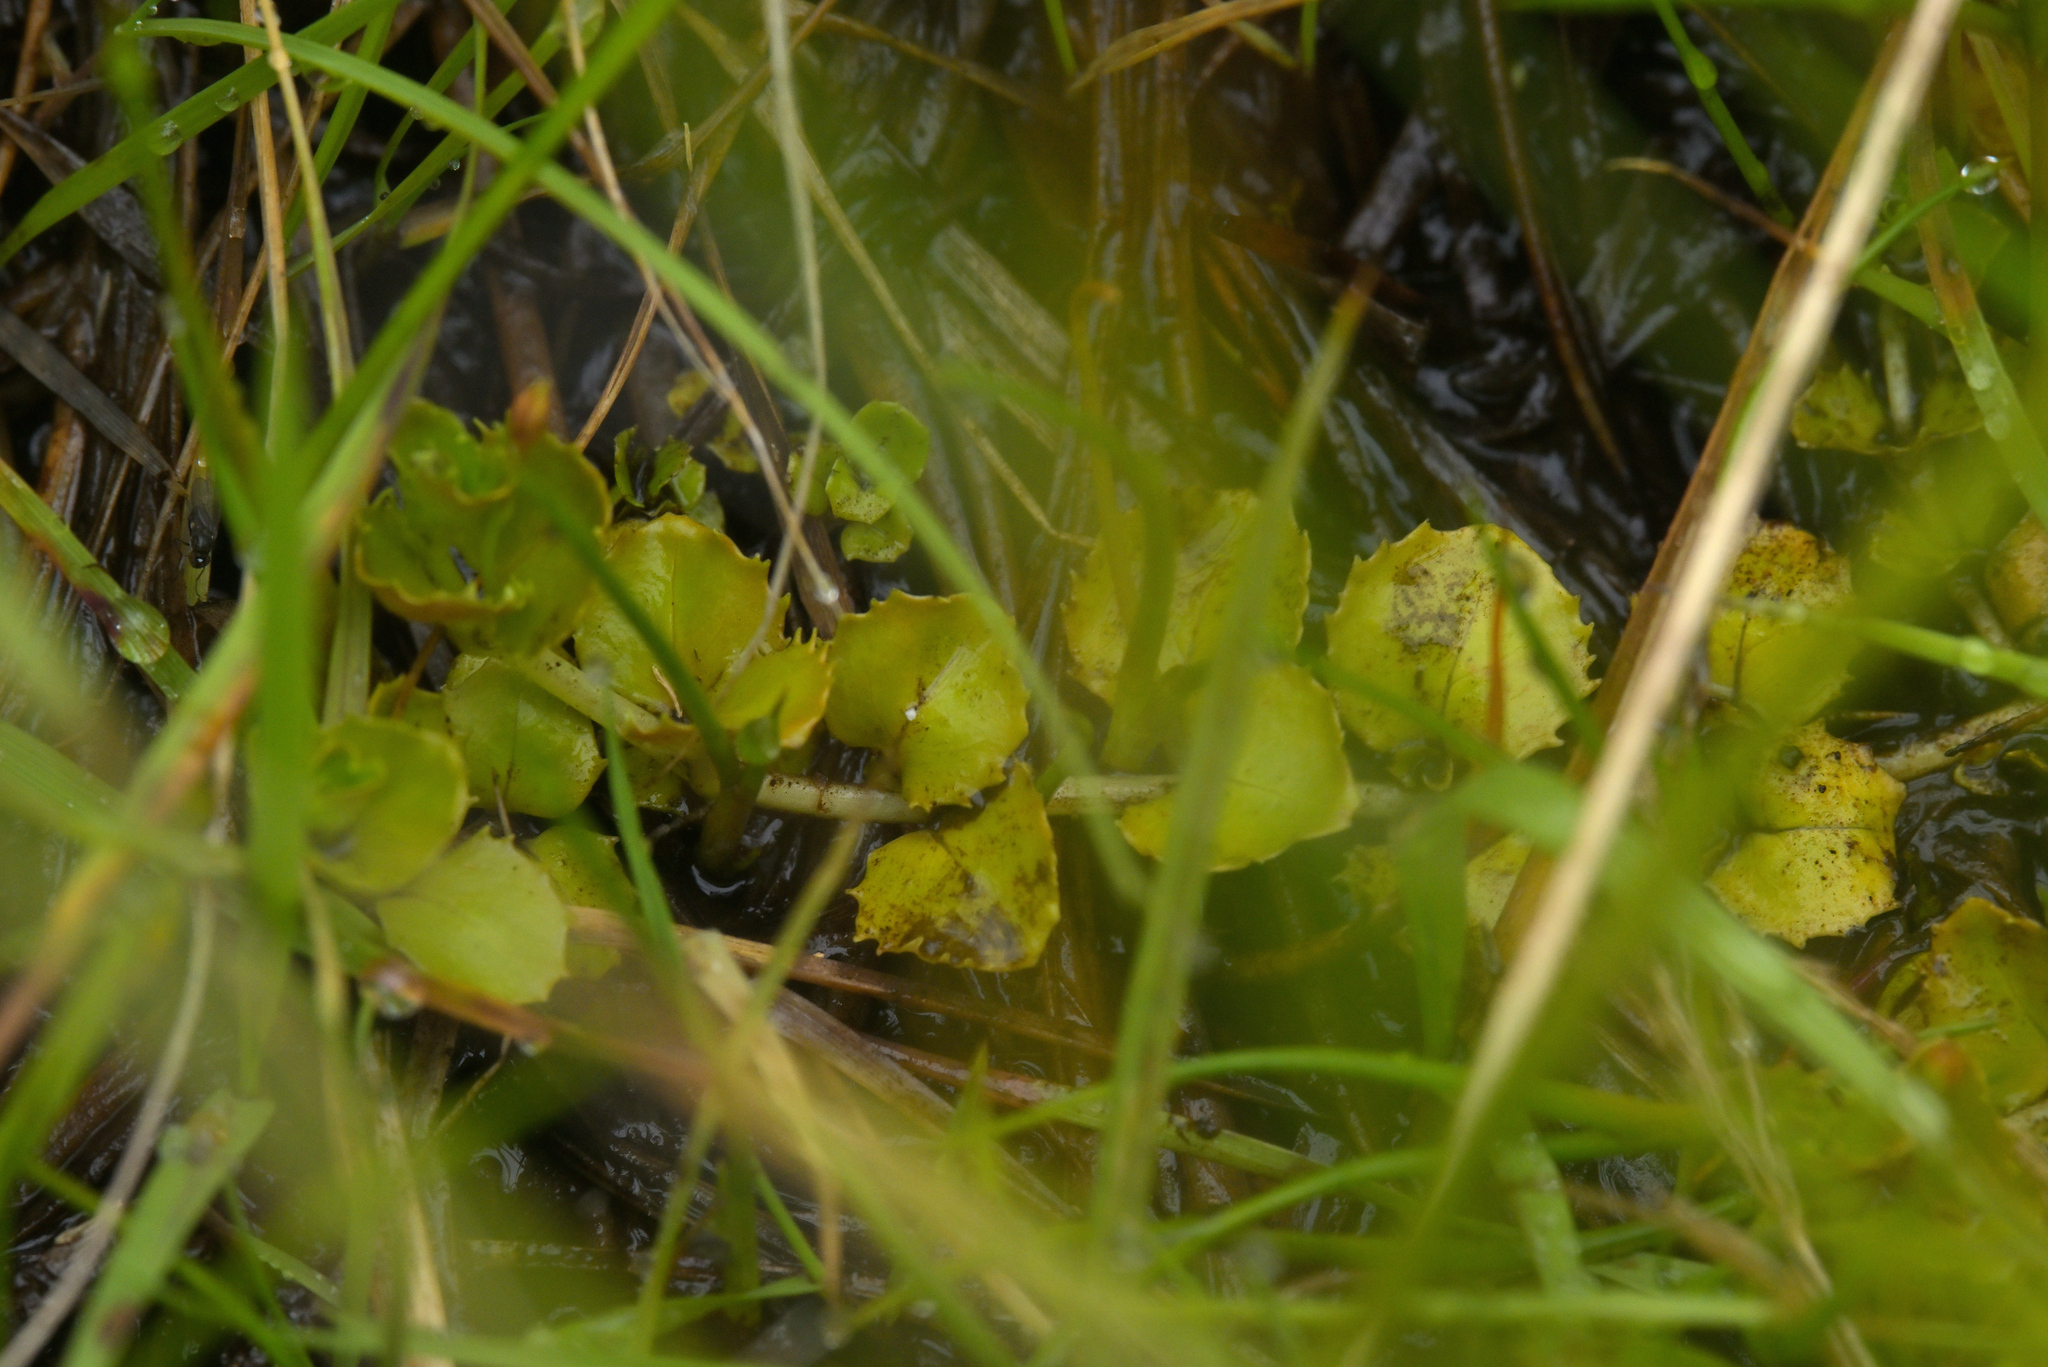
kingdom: Plantae
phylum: Tracheophyta
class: Magnoliopsida
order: Myrtales
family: Onagraceae
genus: Epilobium
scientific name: Epilobium pedunculare
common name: Rockery willowherb
